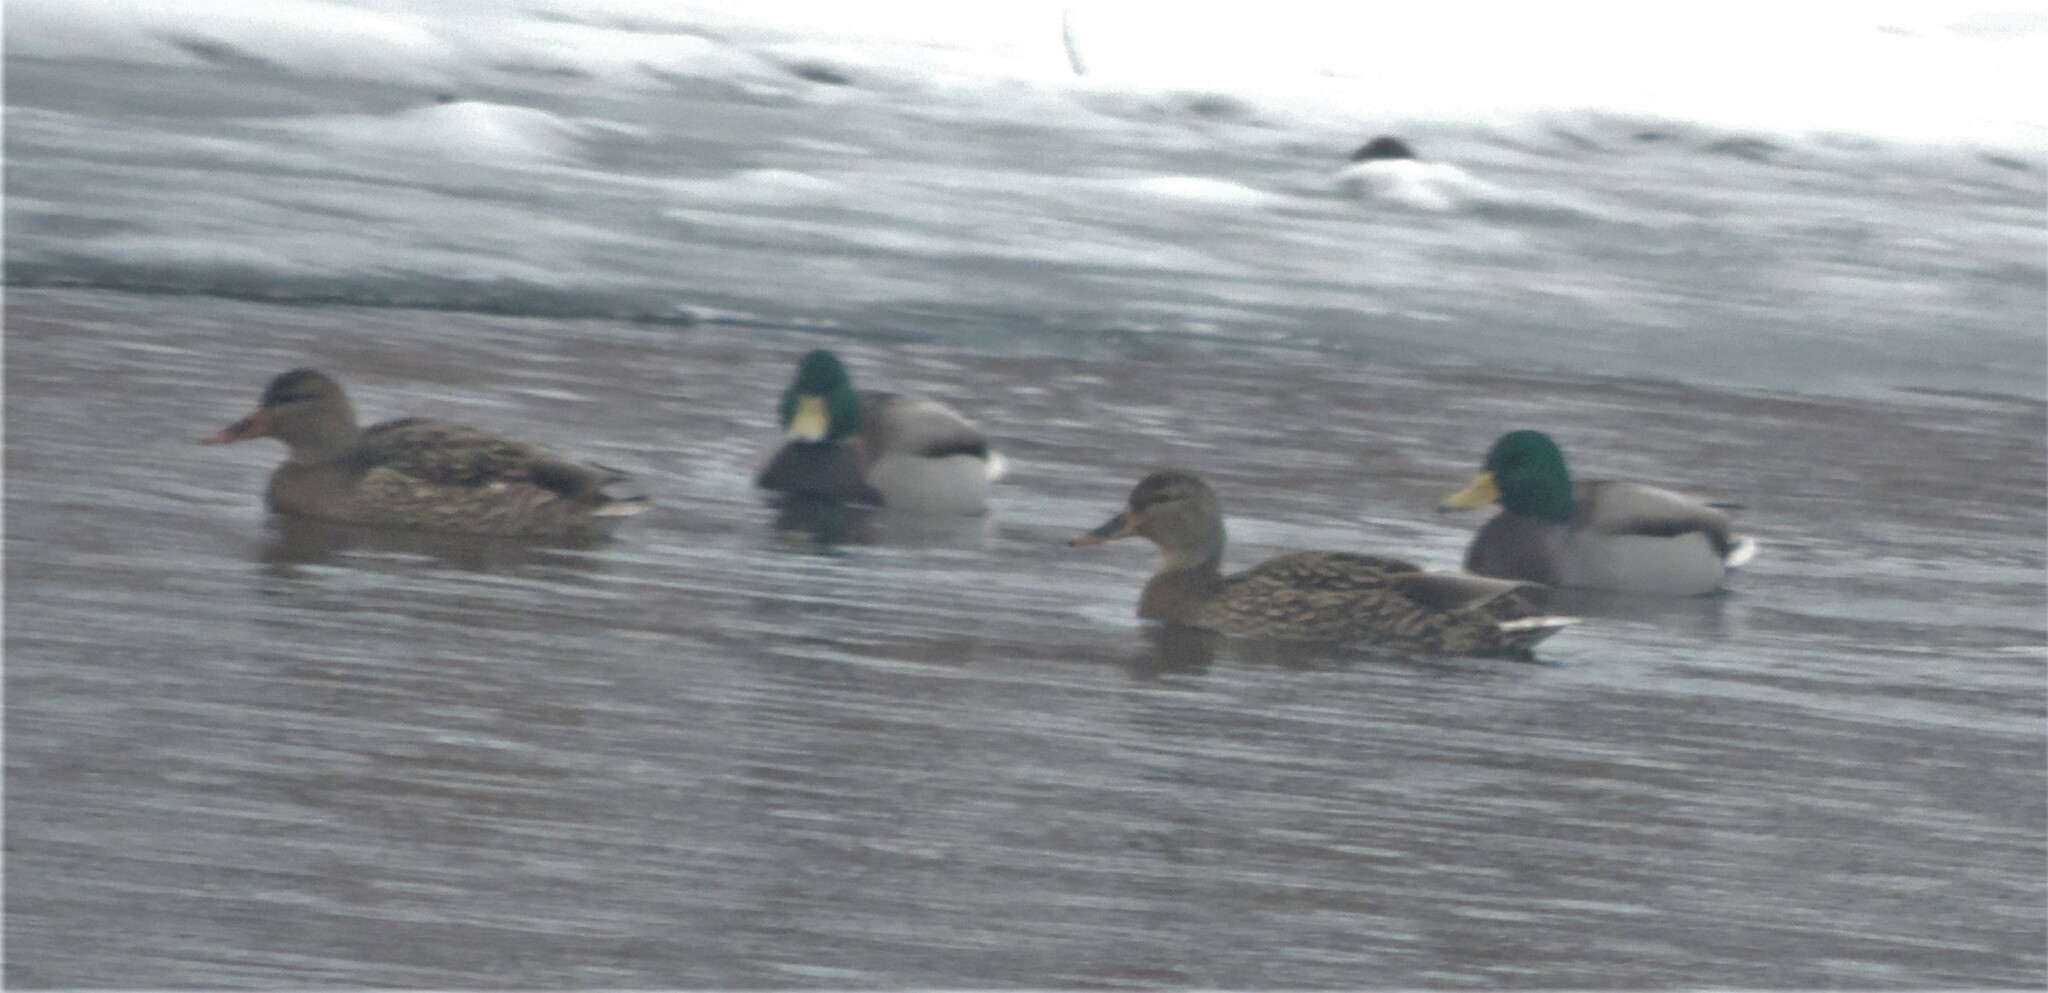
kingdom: Animalia
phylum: Chordata
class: Aves
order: Anseriformes
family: Anatidae
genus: Anas
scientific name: Anas platyrhynchos
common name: Mallard
